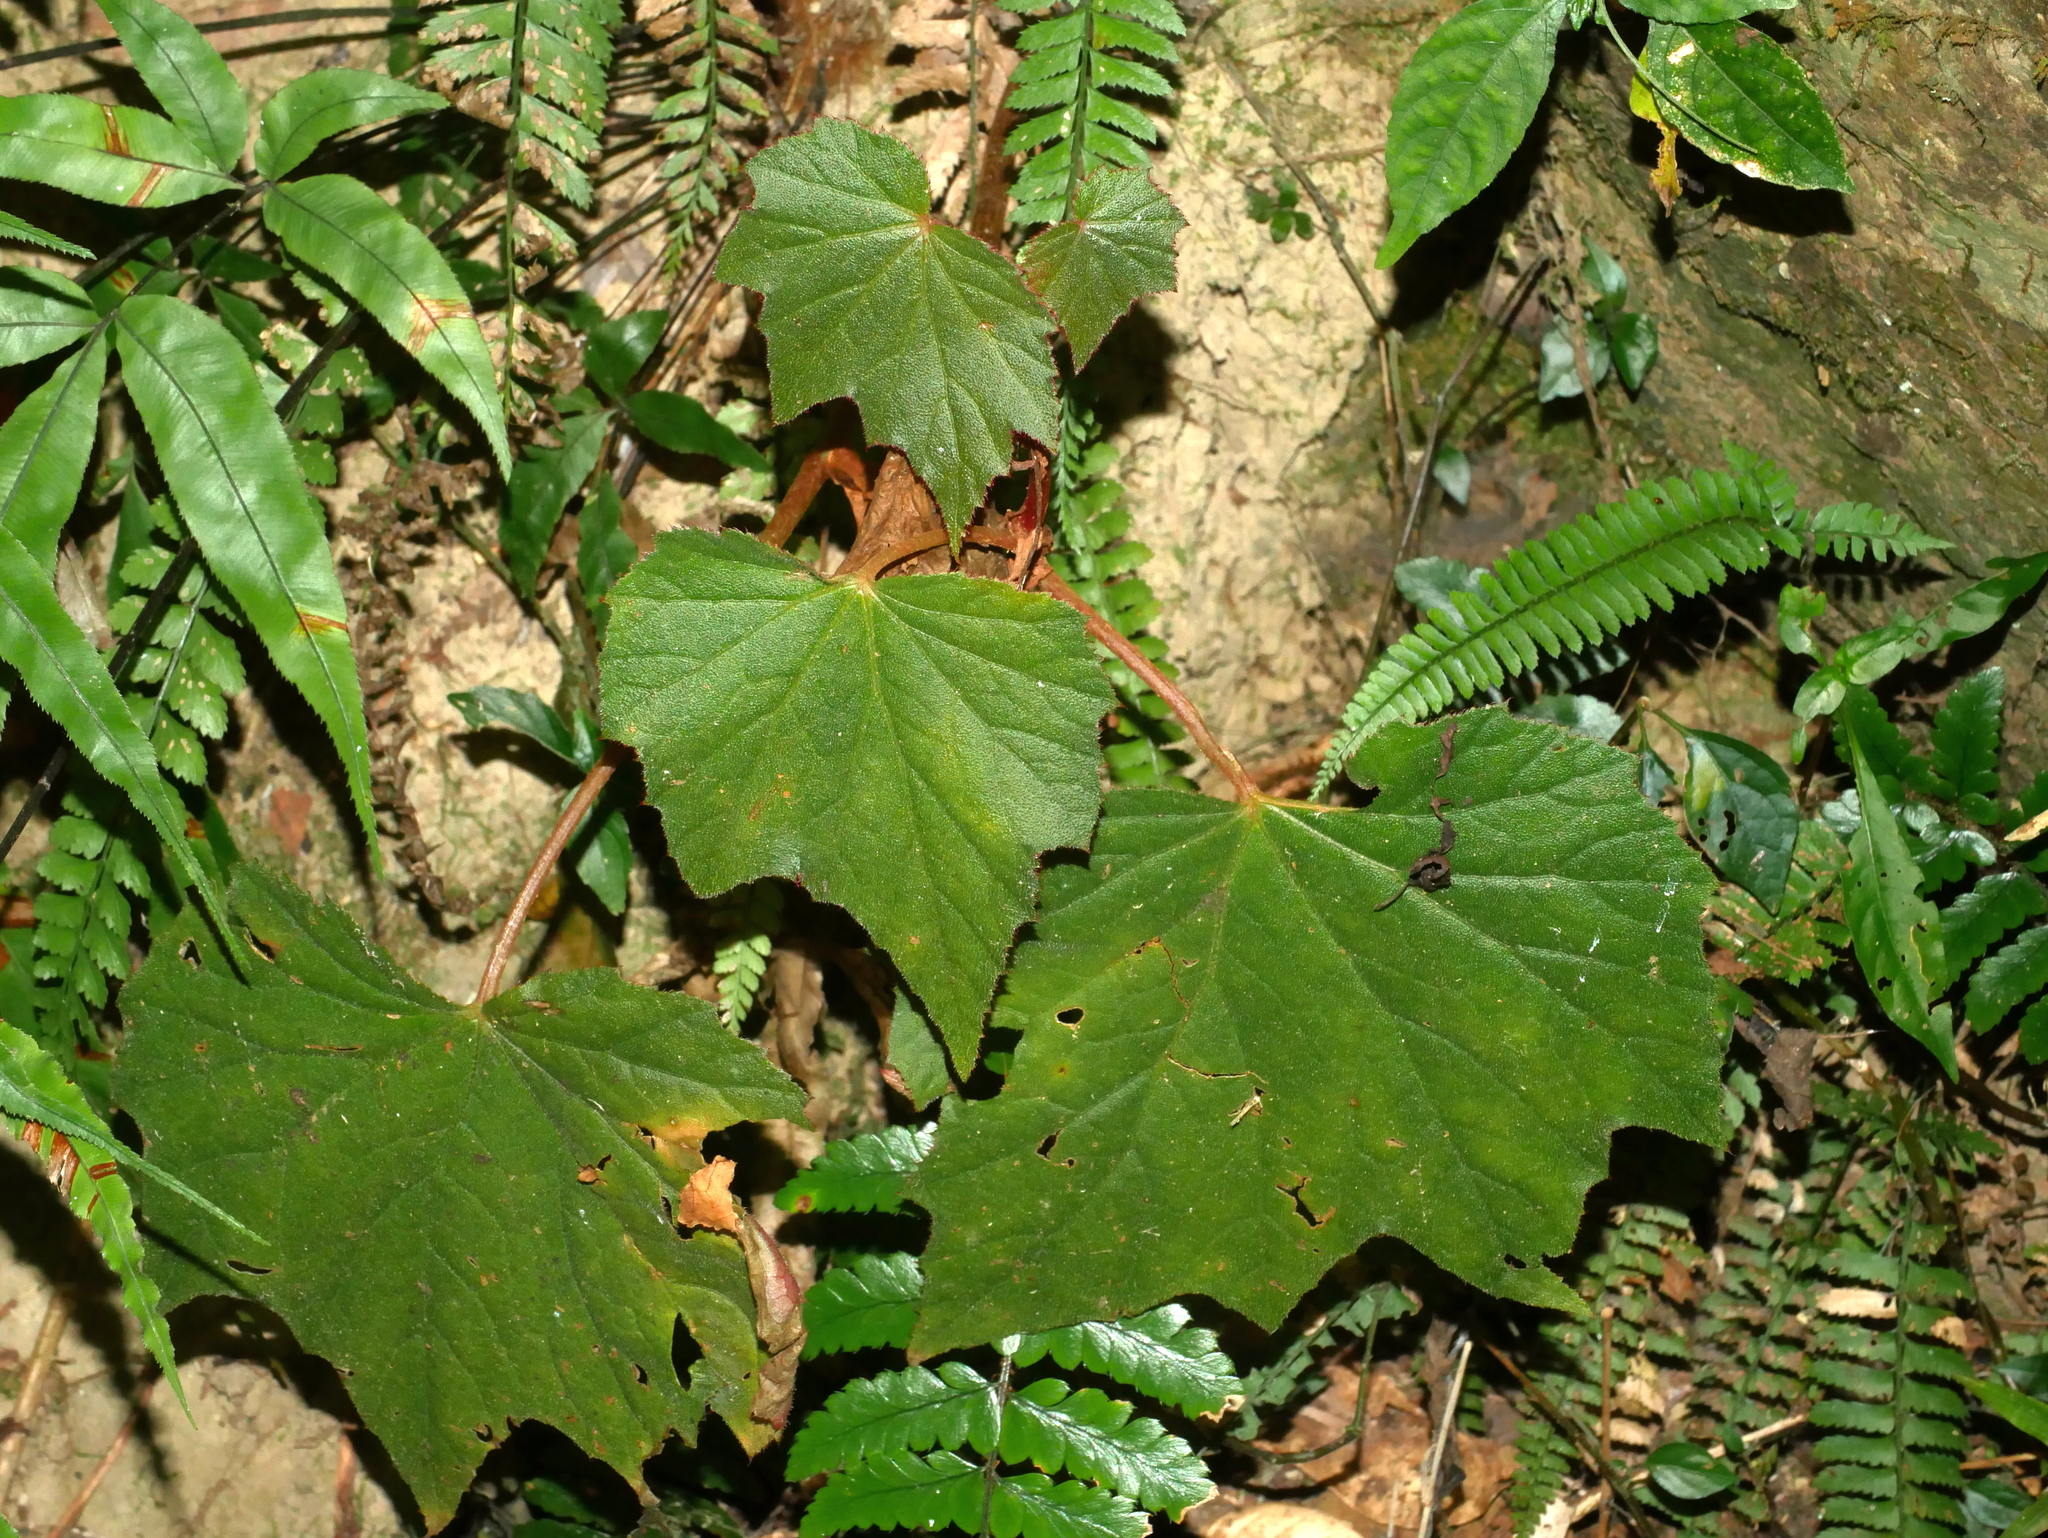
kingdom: Plantae
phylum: Tracheophyta
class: Magnoliopsida
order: Cucurbitales
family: Begoniaceae
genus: Begonia
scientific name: Begonia palmata
